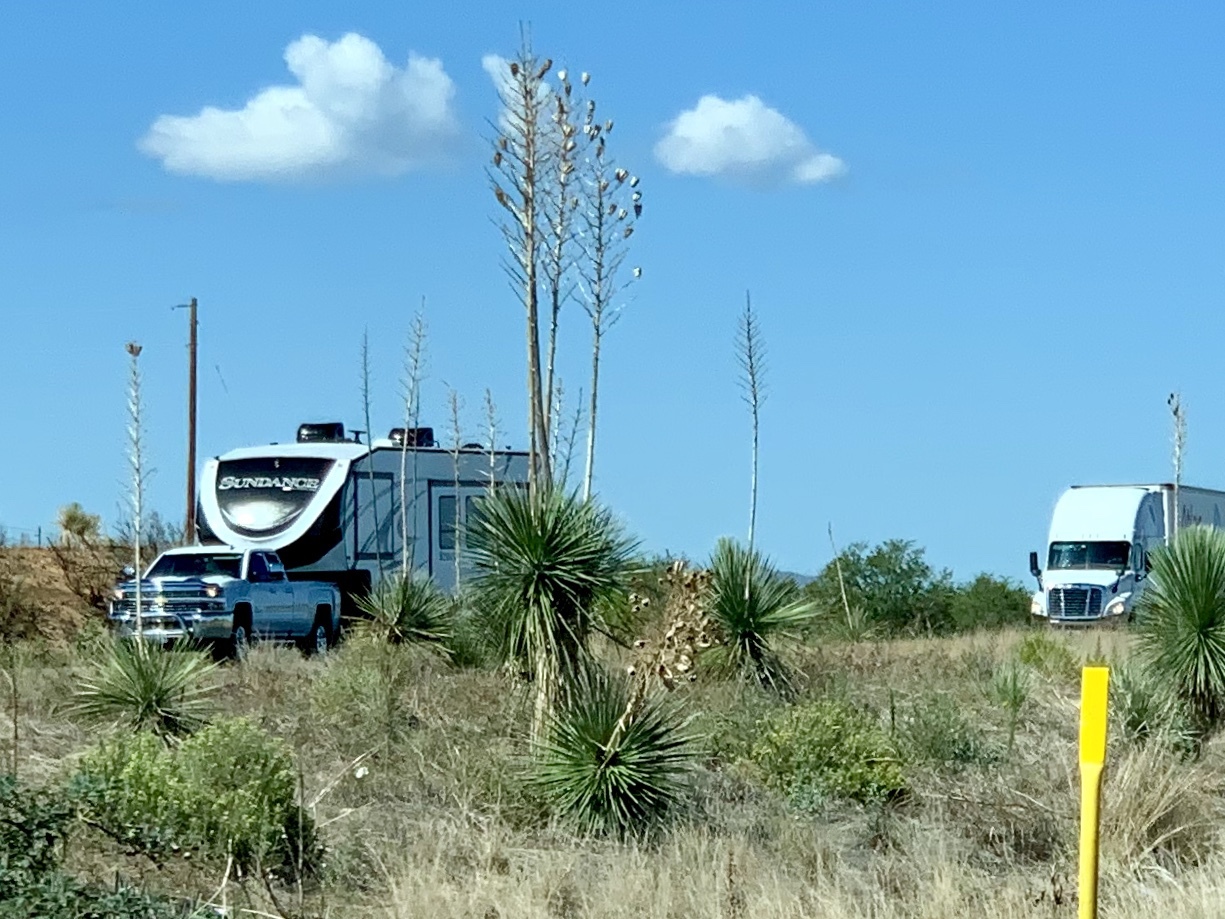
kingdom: Plantae
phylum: Tracheophyta
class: Liliopsida
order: Asparagales
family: Asparagaceae
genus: Yucca
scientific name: Yucca elata
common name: Palmella
